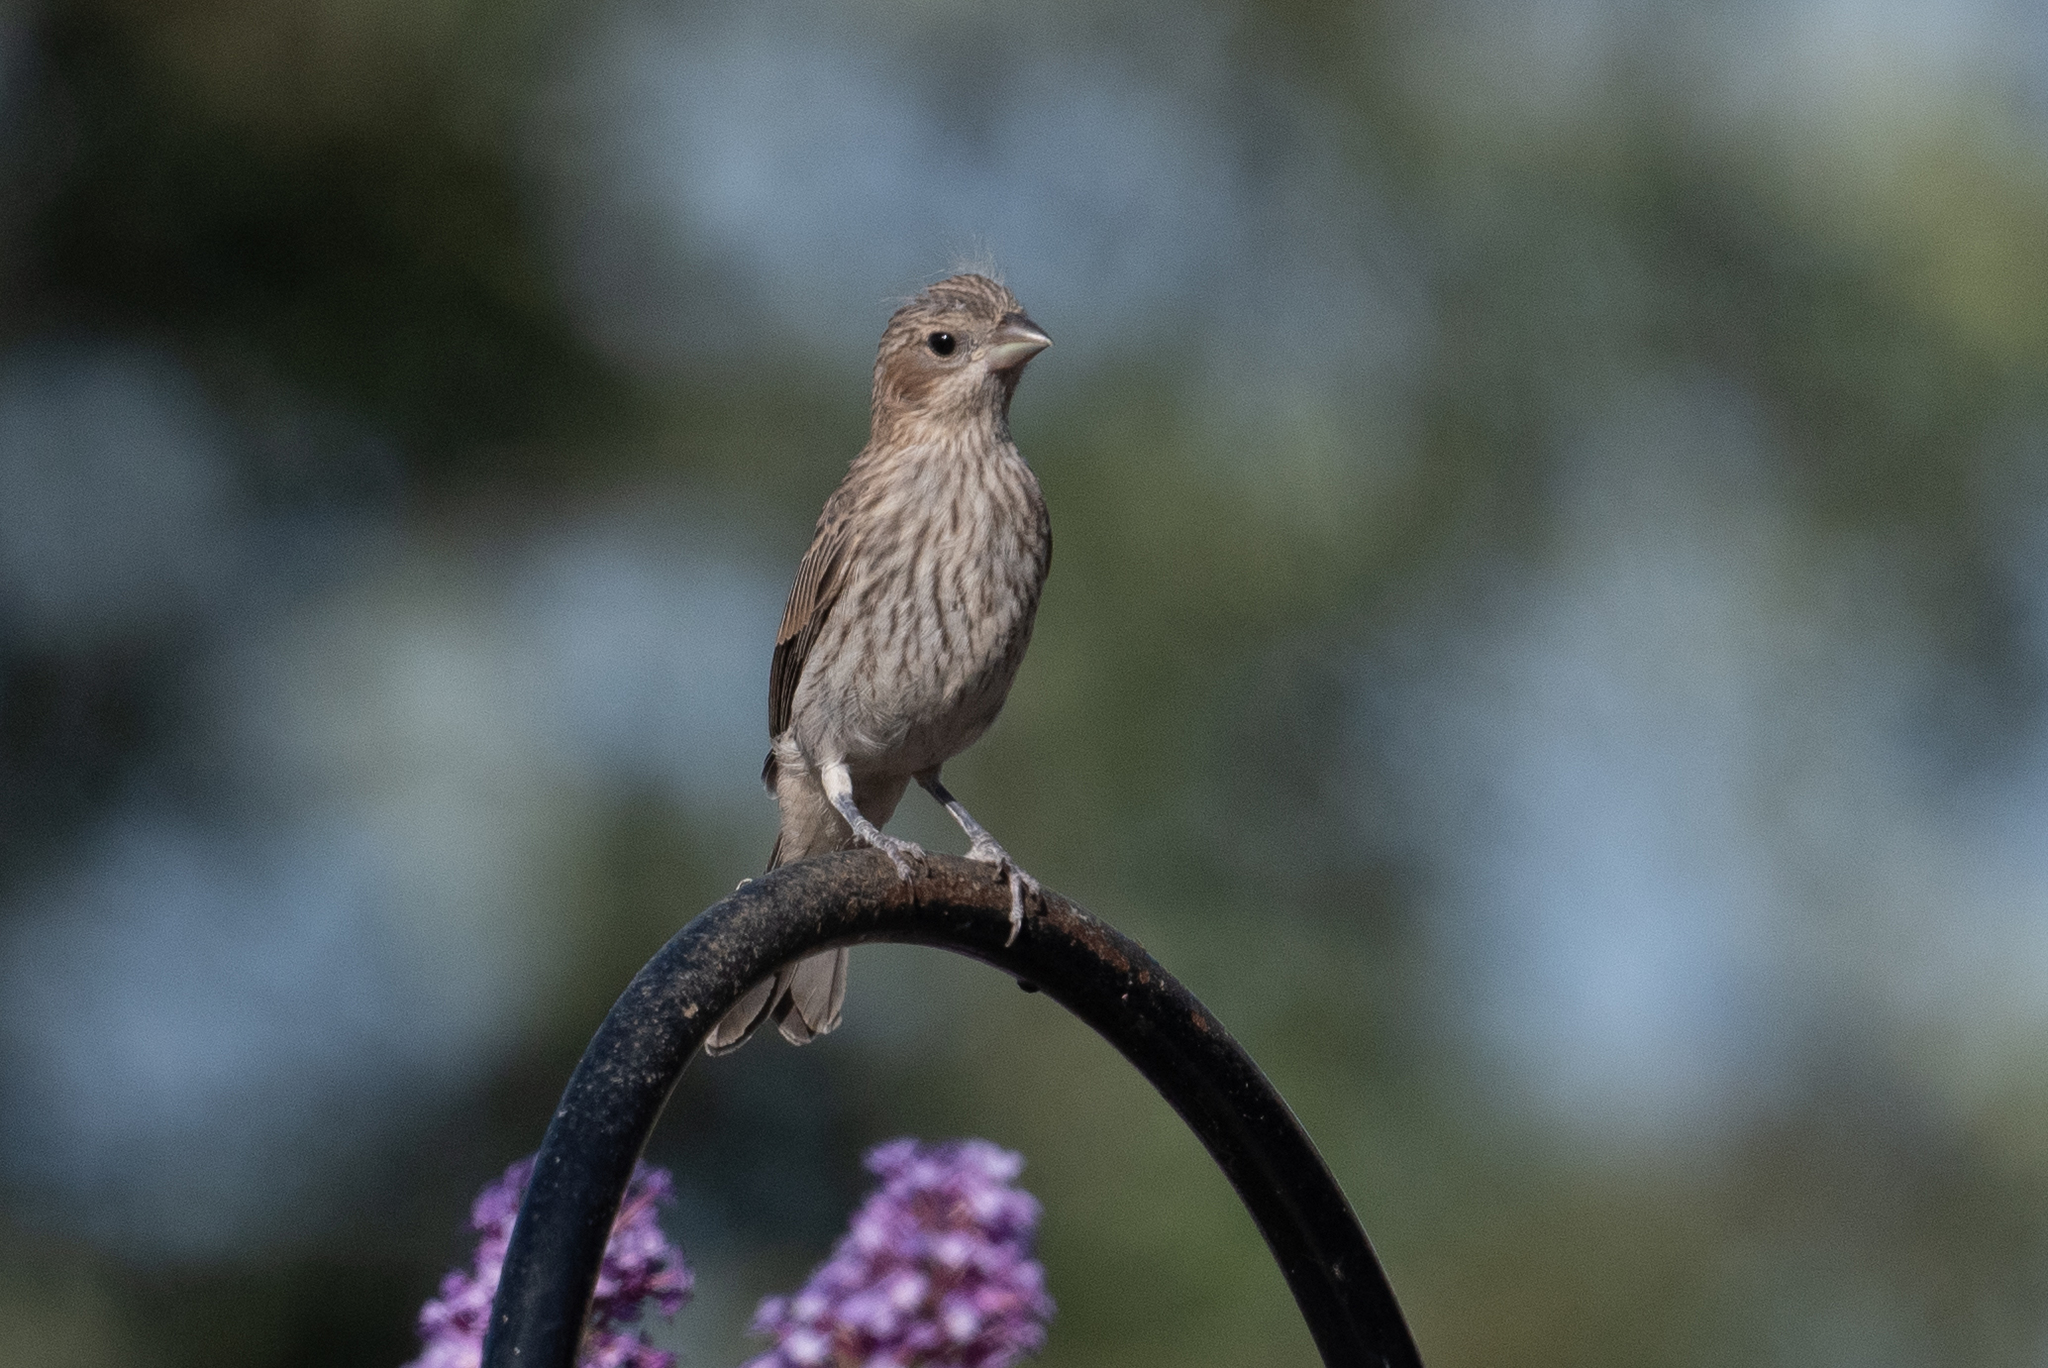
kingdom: Animalia
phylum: Chordata
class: Aves
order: Passeriformes
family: Fringillidae
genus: Haemorhous
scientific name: Haemorhous mexicanus
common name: House finch
